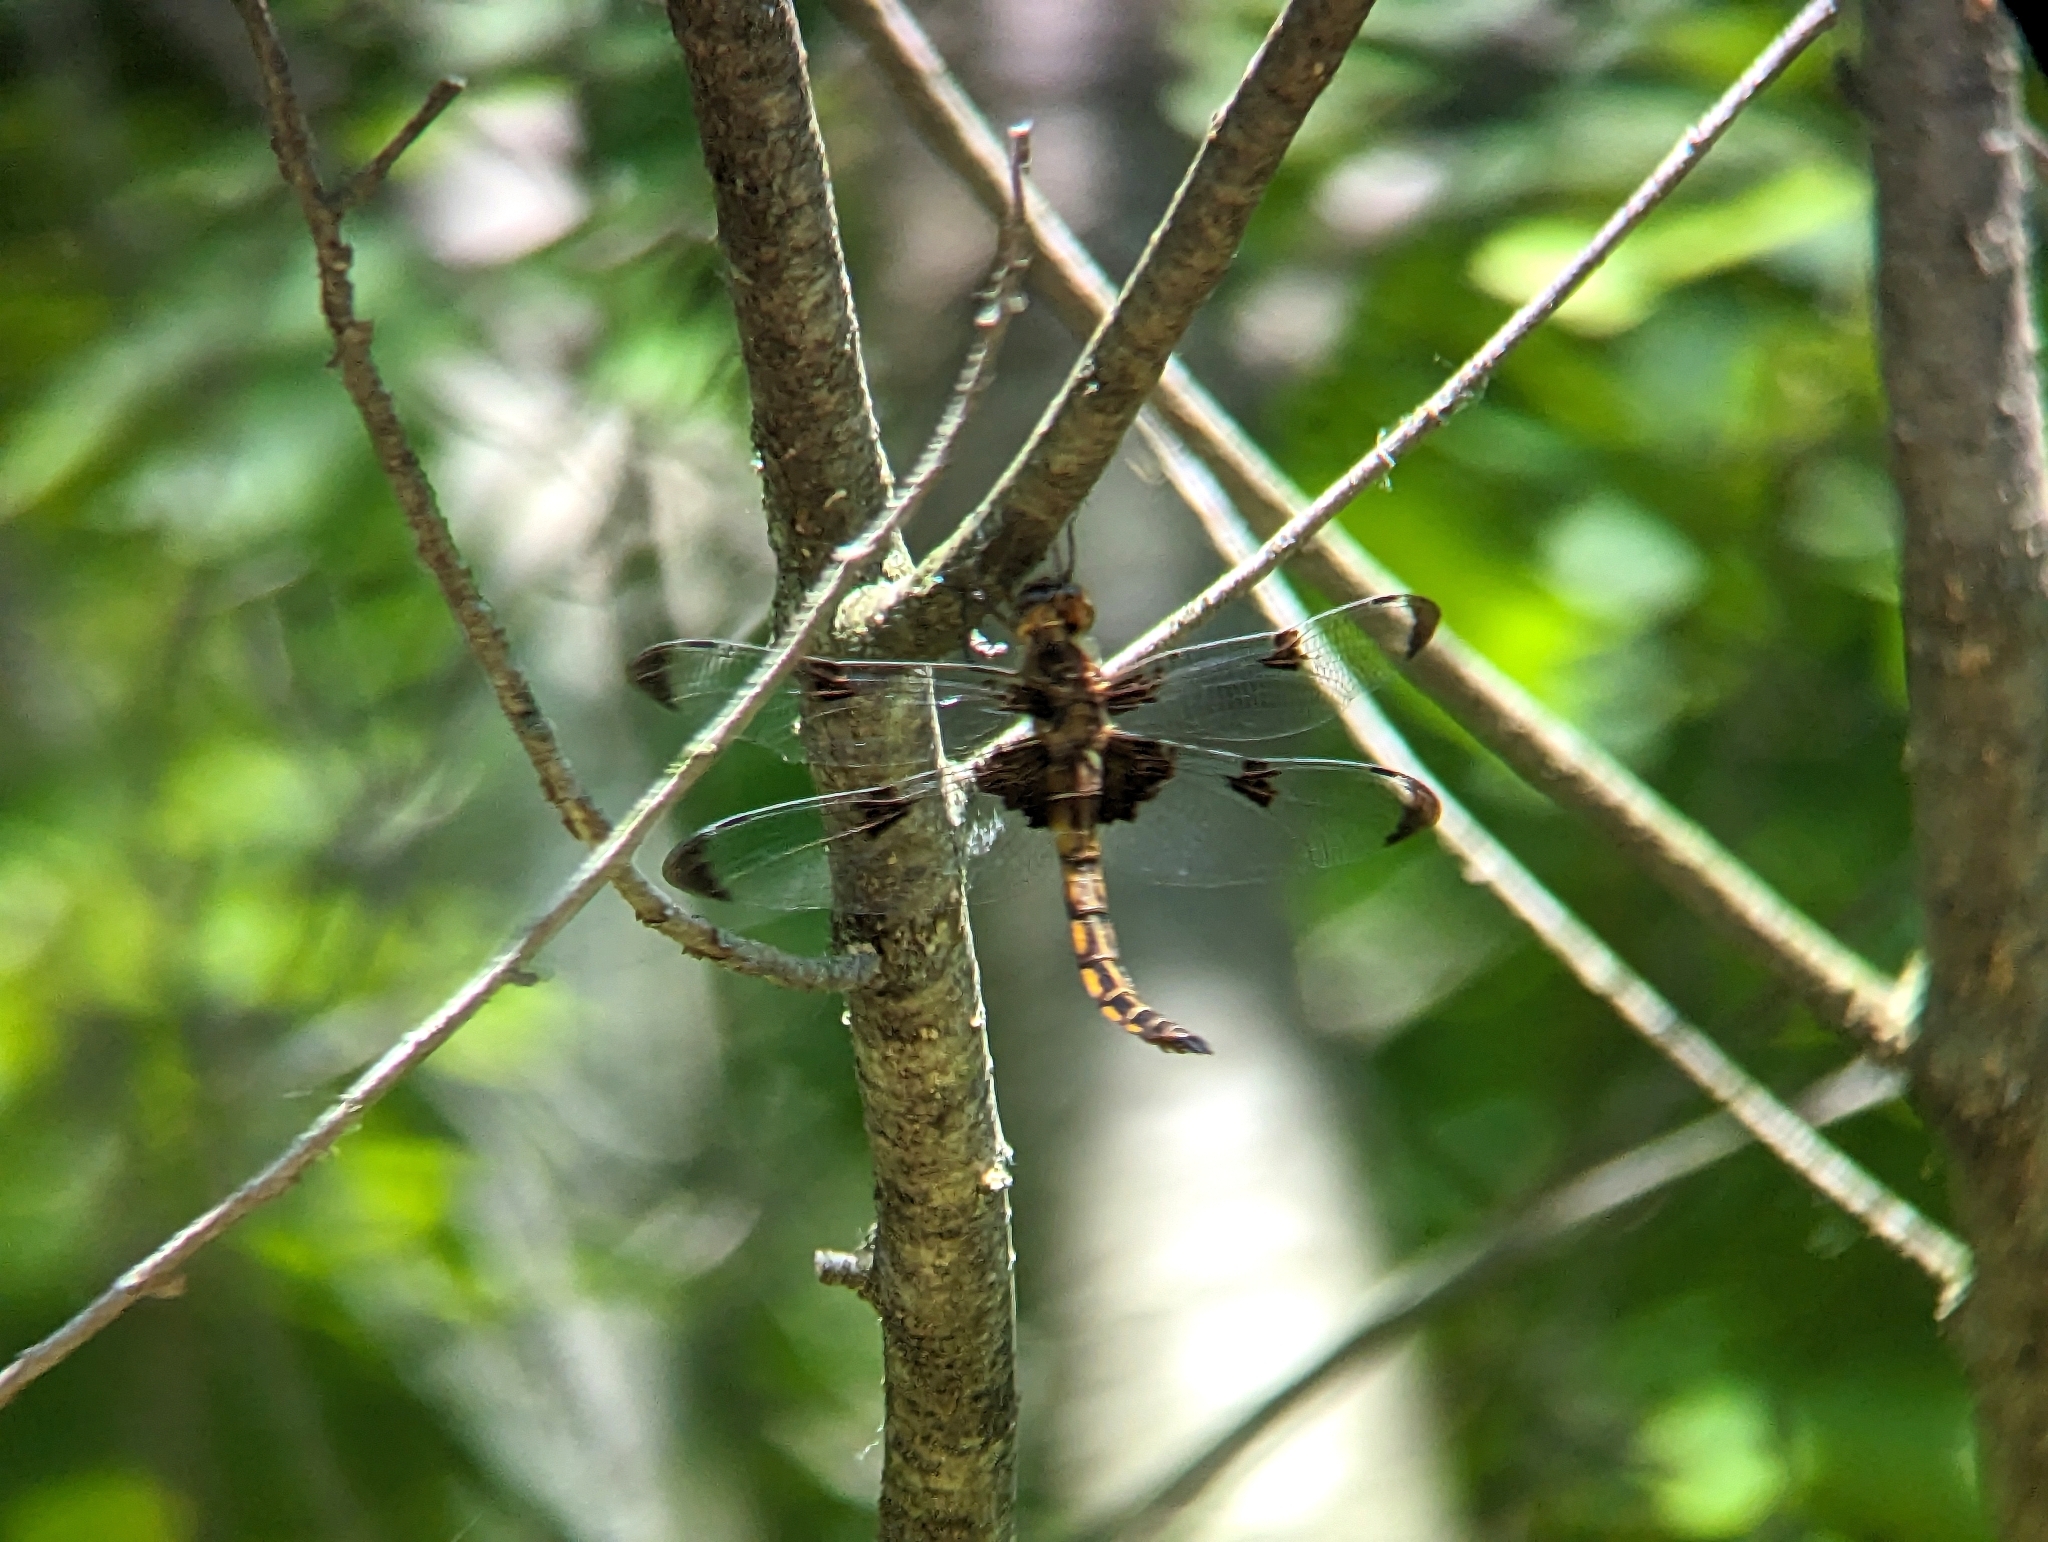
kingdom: Animalia
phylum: Arthropoda
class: Insecta
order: Odonata
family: Corduliidae
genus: Epitheca
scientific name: Epitheca princeps
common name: Prince baskettail
